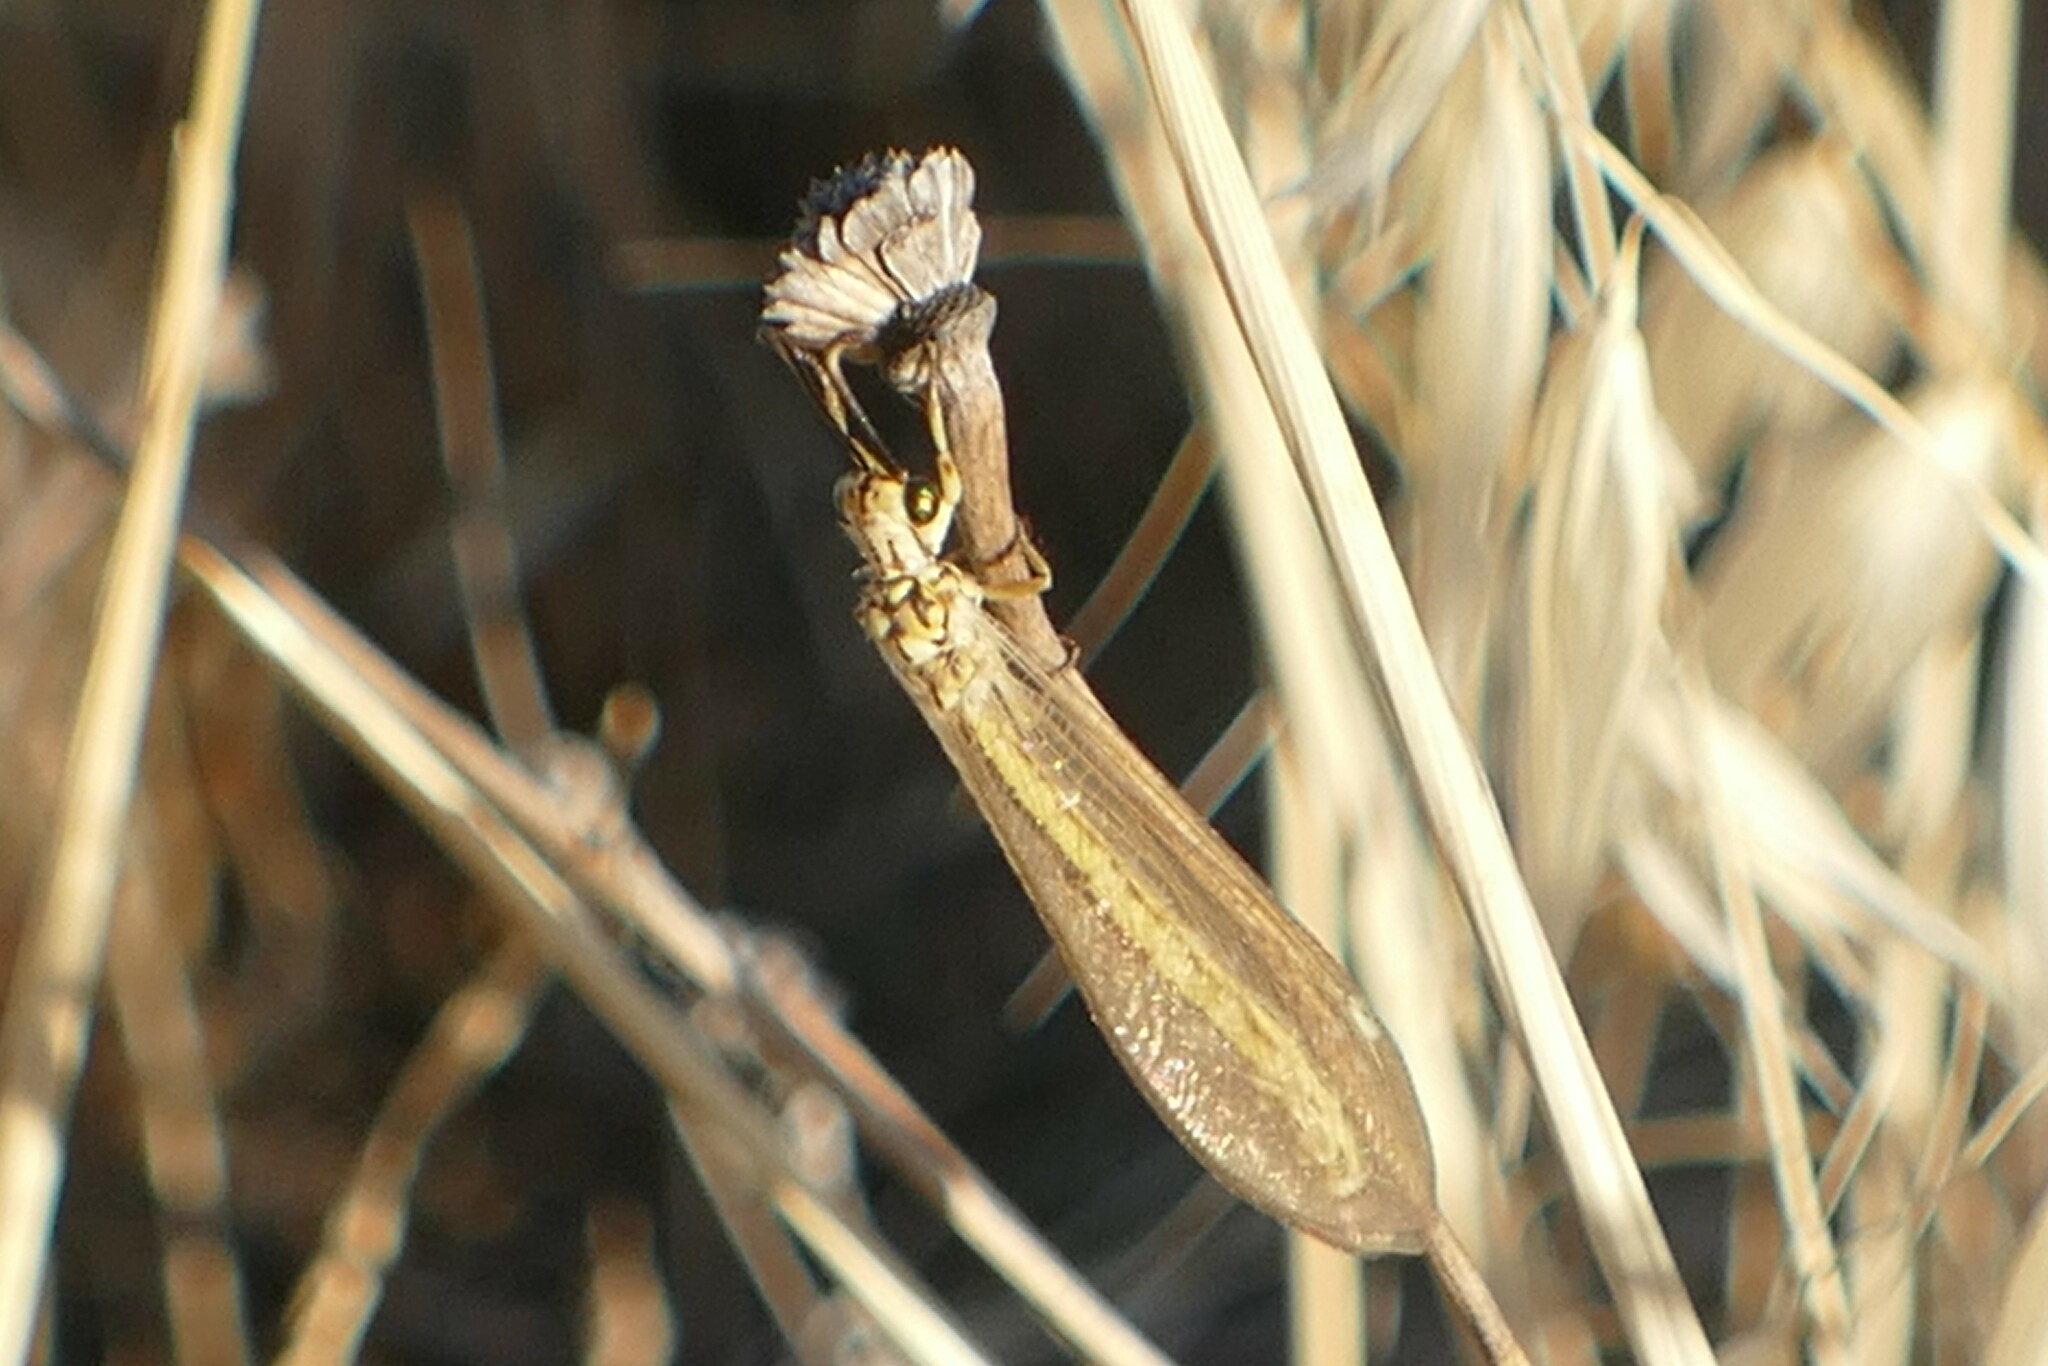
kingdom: Animalia
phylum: Arthropoda
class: Insecta
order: Neuroptera
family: Myrmeleontidae
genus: Myrmecaelurus
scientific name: Myrmecaelurus trigrammus
